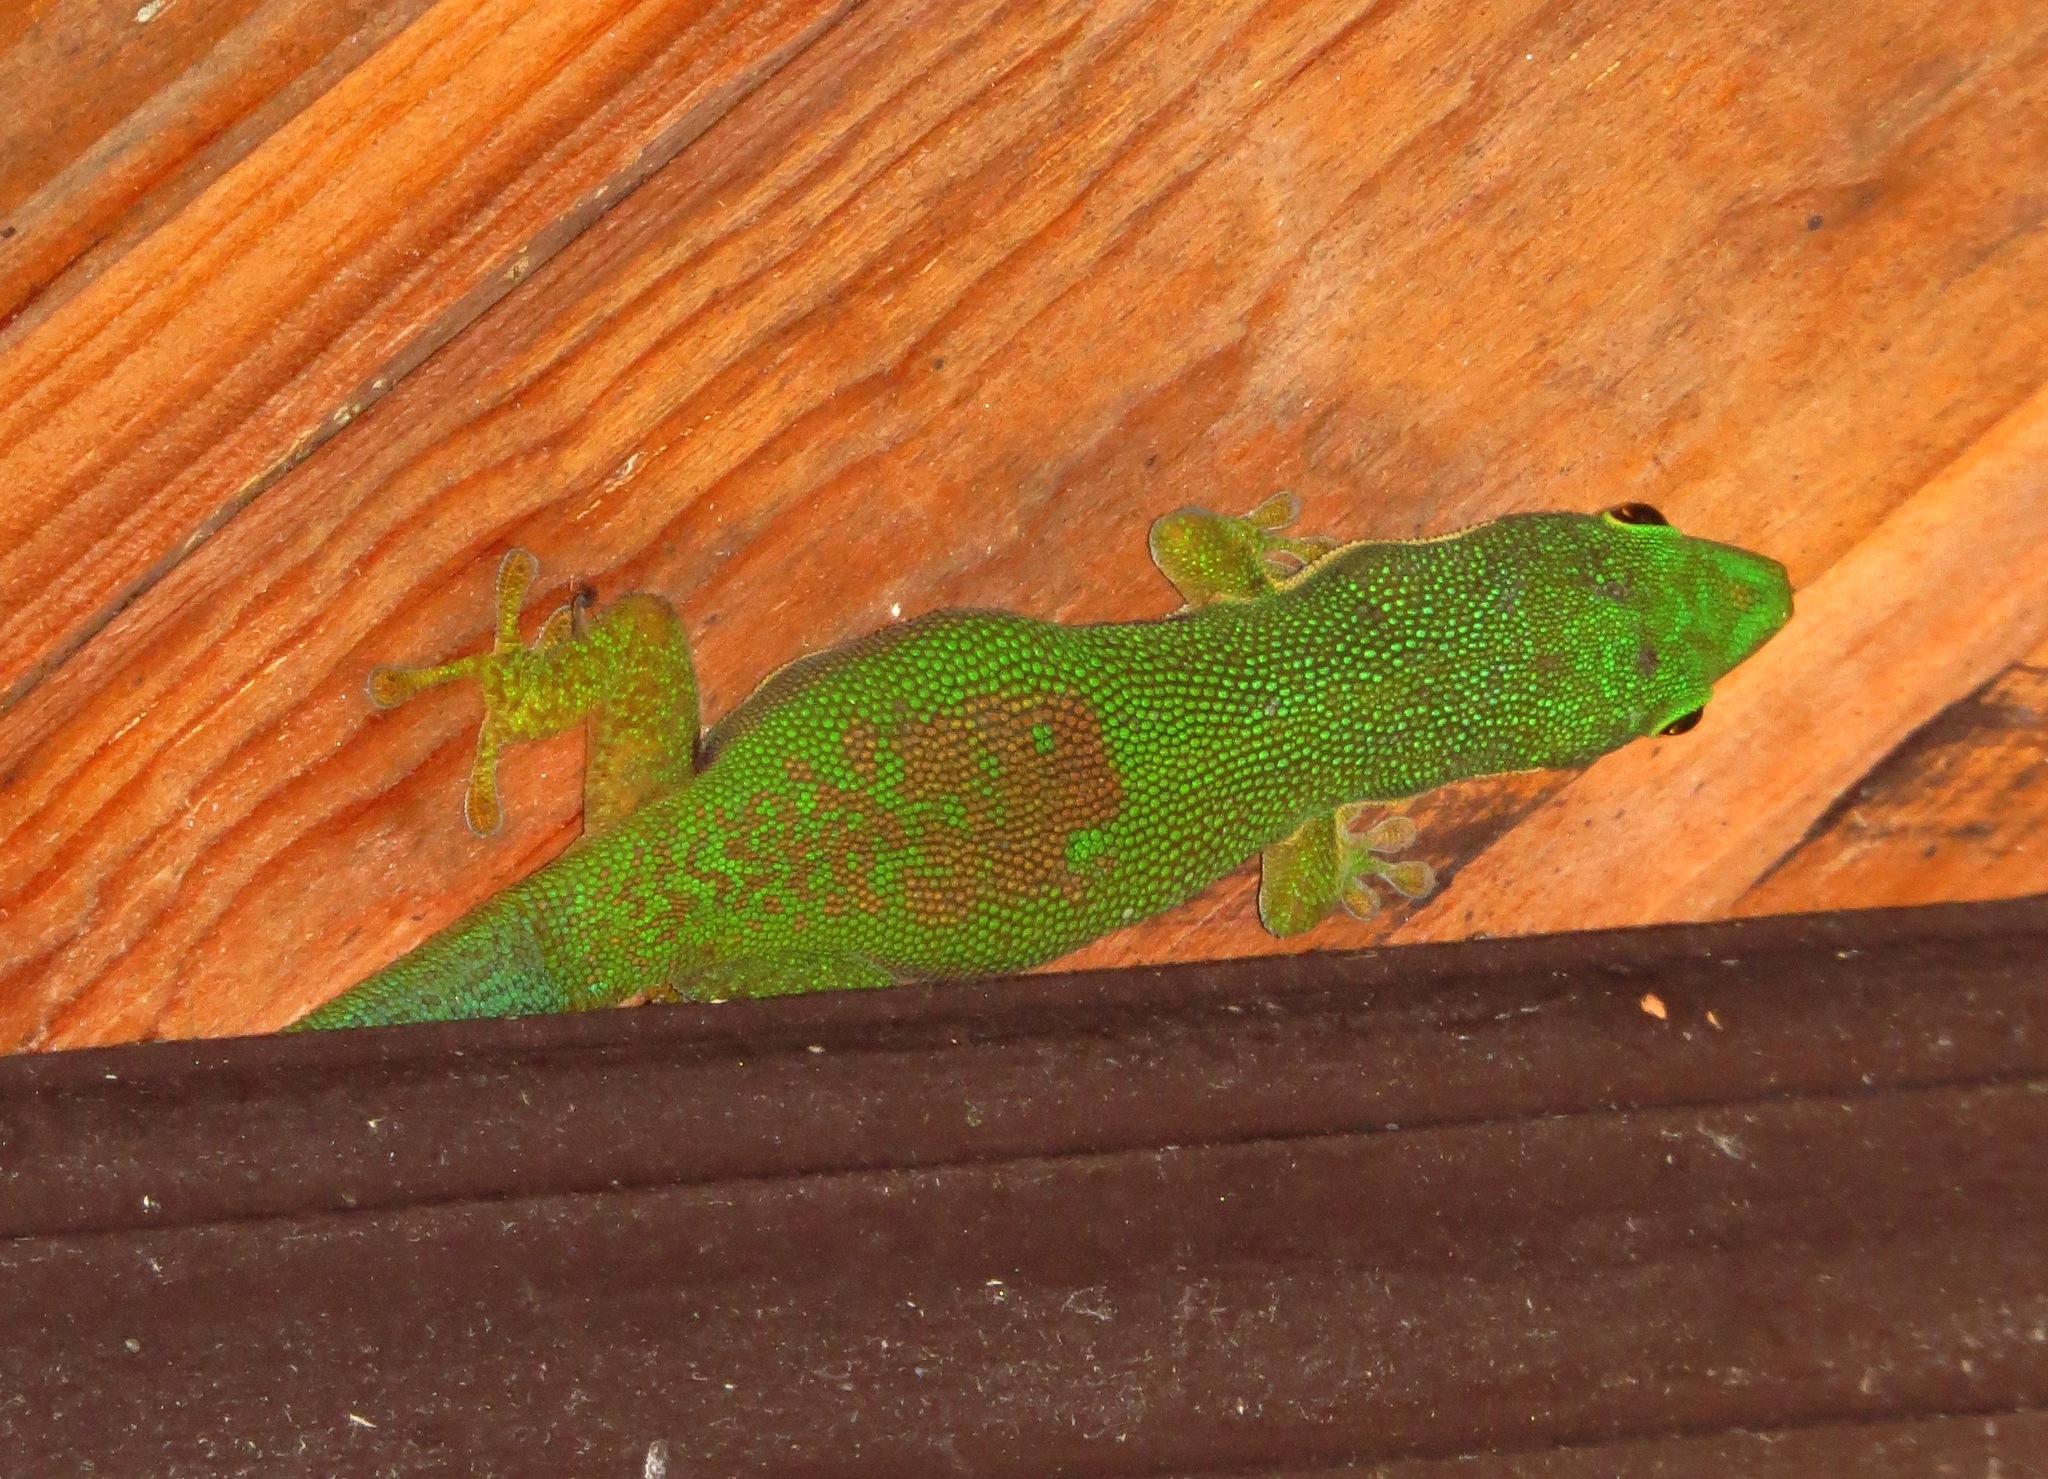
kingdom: Animalia
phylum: Chordata
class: Squamata
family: Gekkonidae
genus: Phelsuma
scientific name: Phelsuma lineata
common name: Lined day gecko
